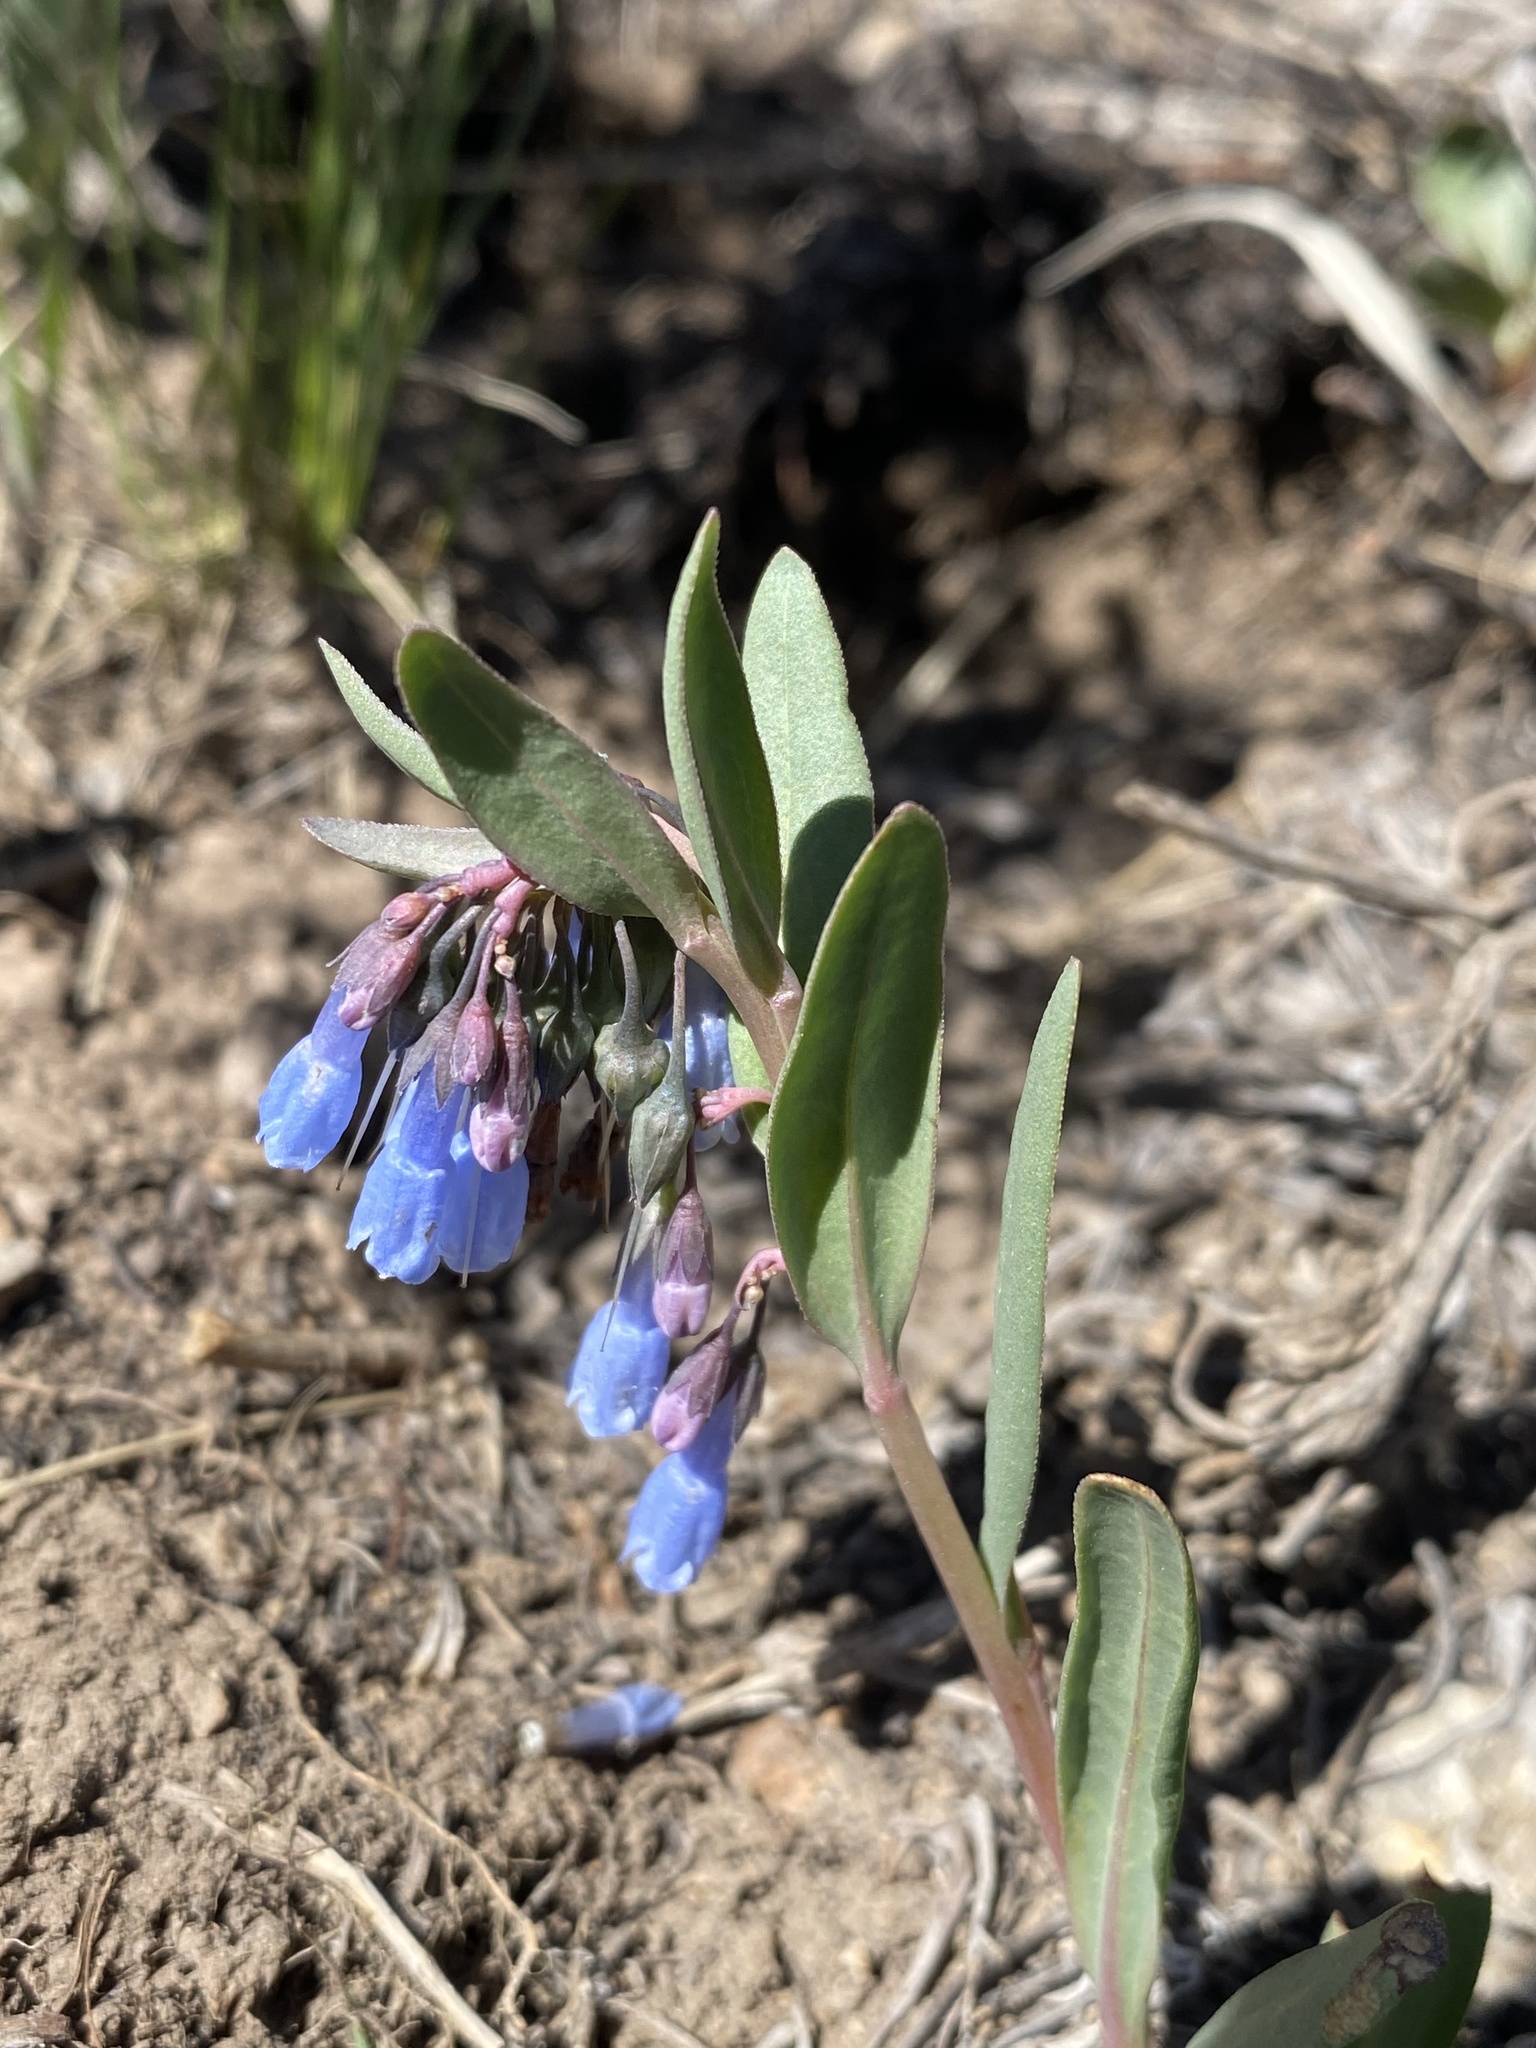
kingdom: Plantae
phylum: Tracheophyta
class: Magnoliopsida
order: Boraginales
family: Boraginaceae
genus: Mertensia
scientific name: Mertensia oblongifolia
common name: Sagebrush bluebells
